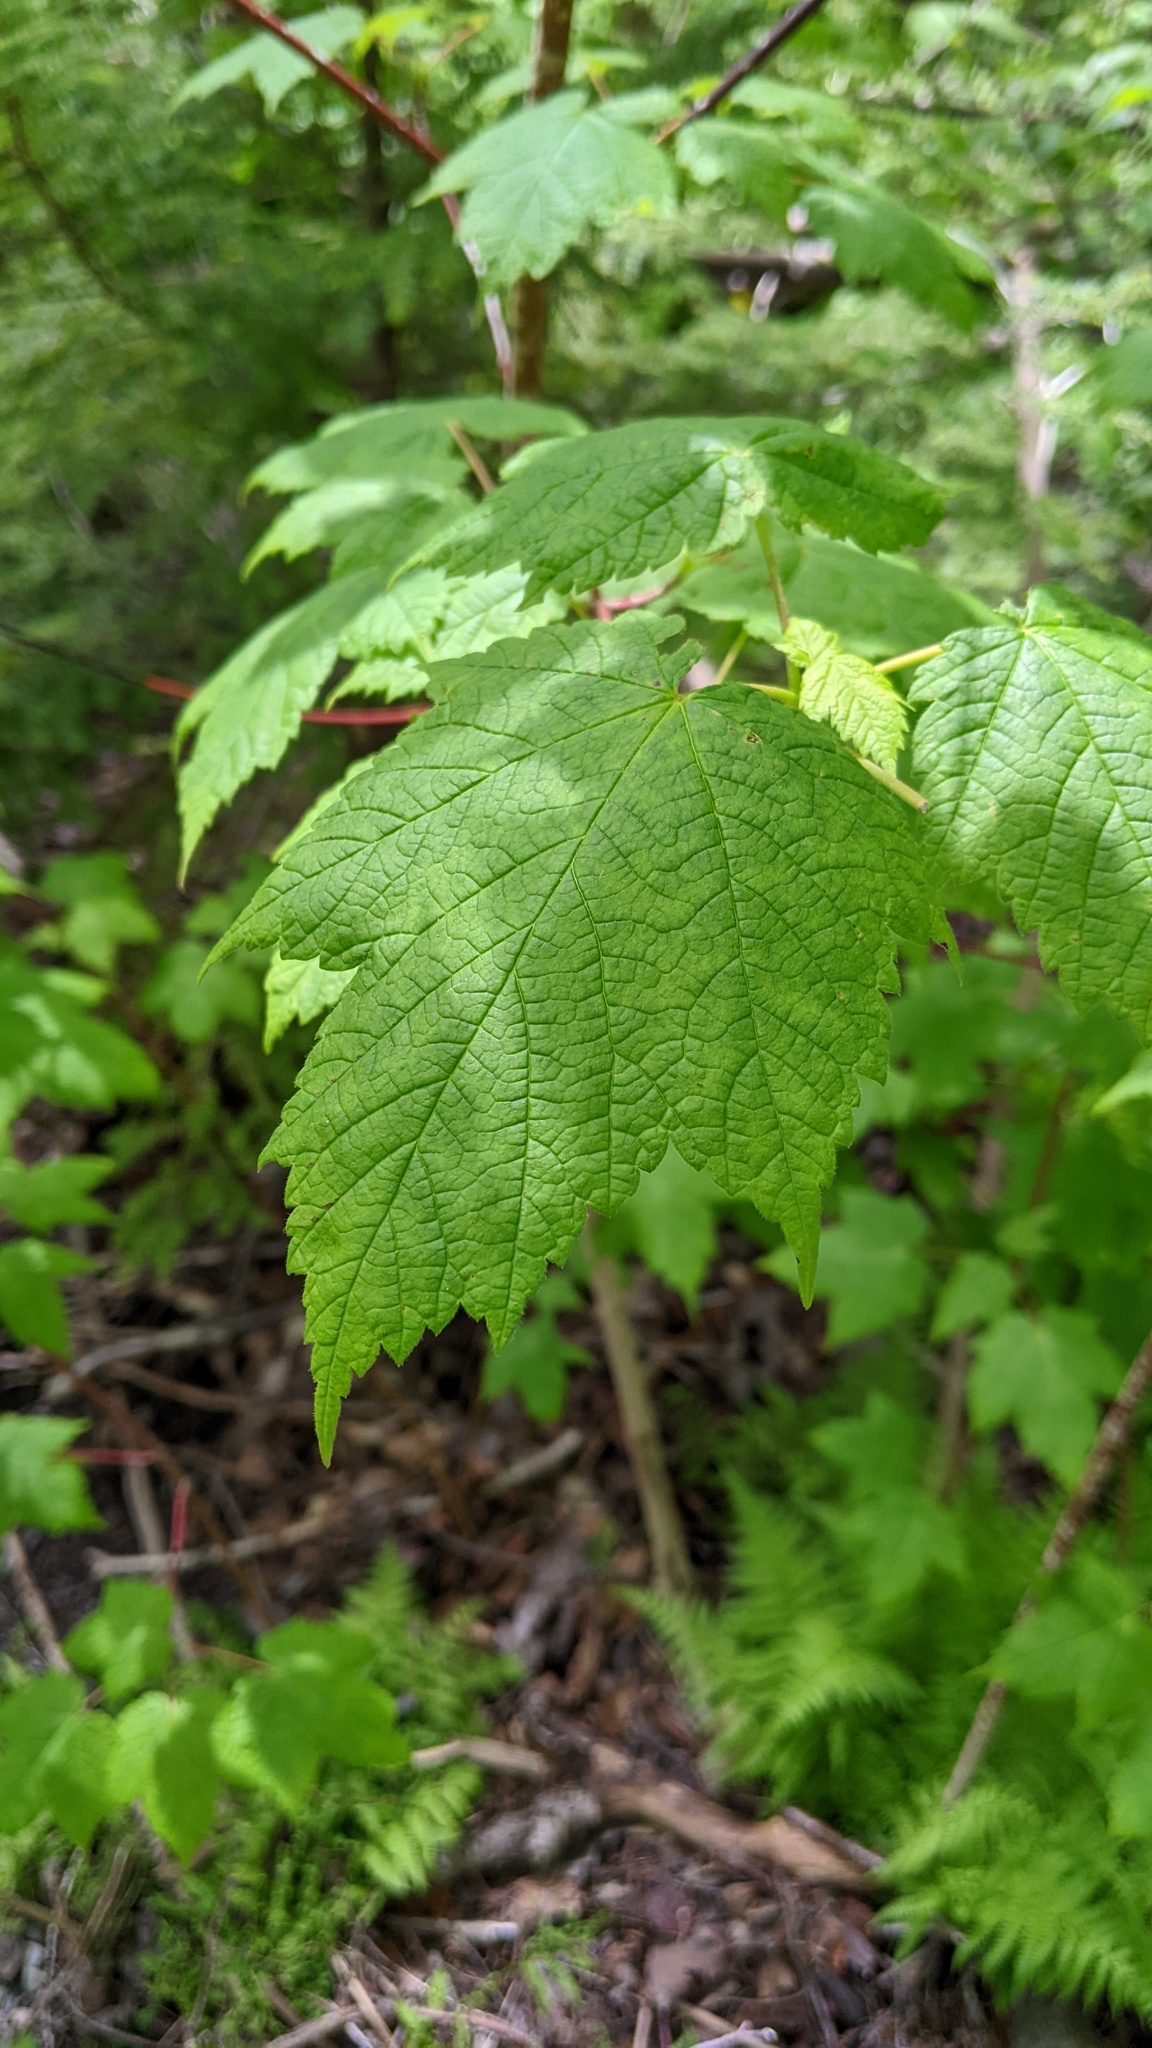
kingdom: Plantae
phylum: Tracheophyta
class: Magnoliopsida
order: Sapindales
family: Sapindaceae
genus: Acer
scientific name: Acer spicatum
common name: Mountain maple
